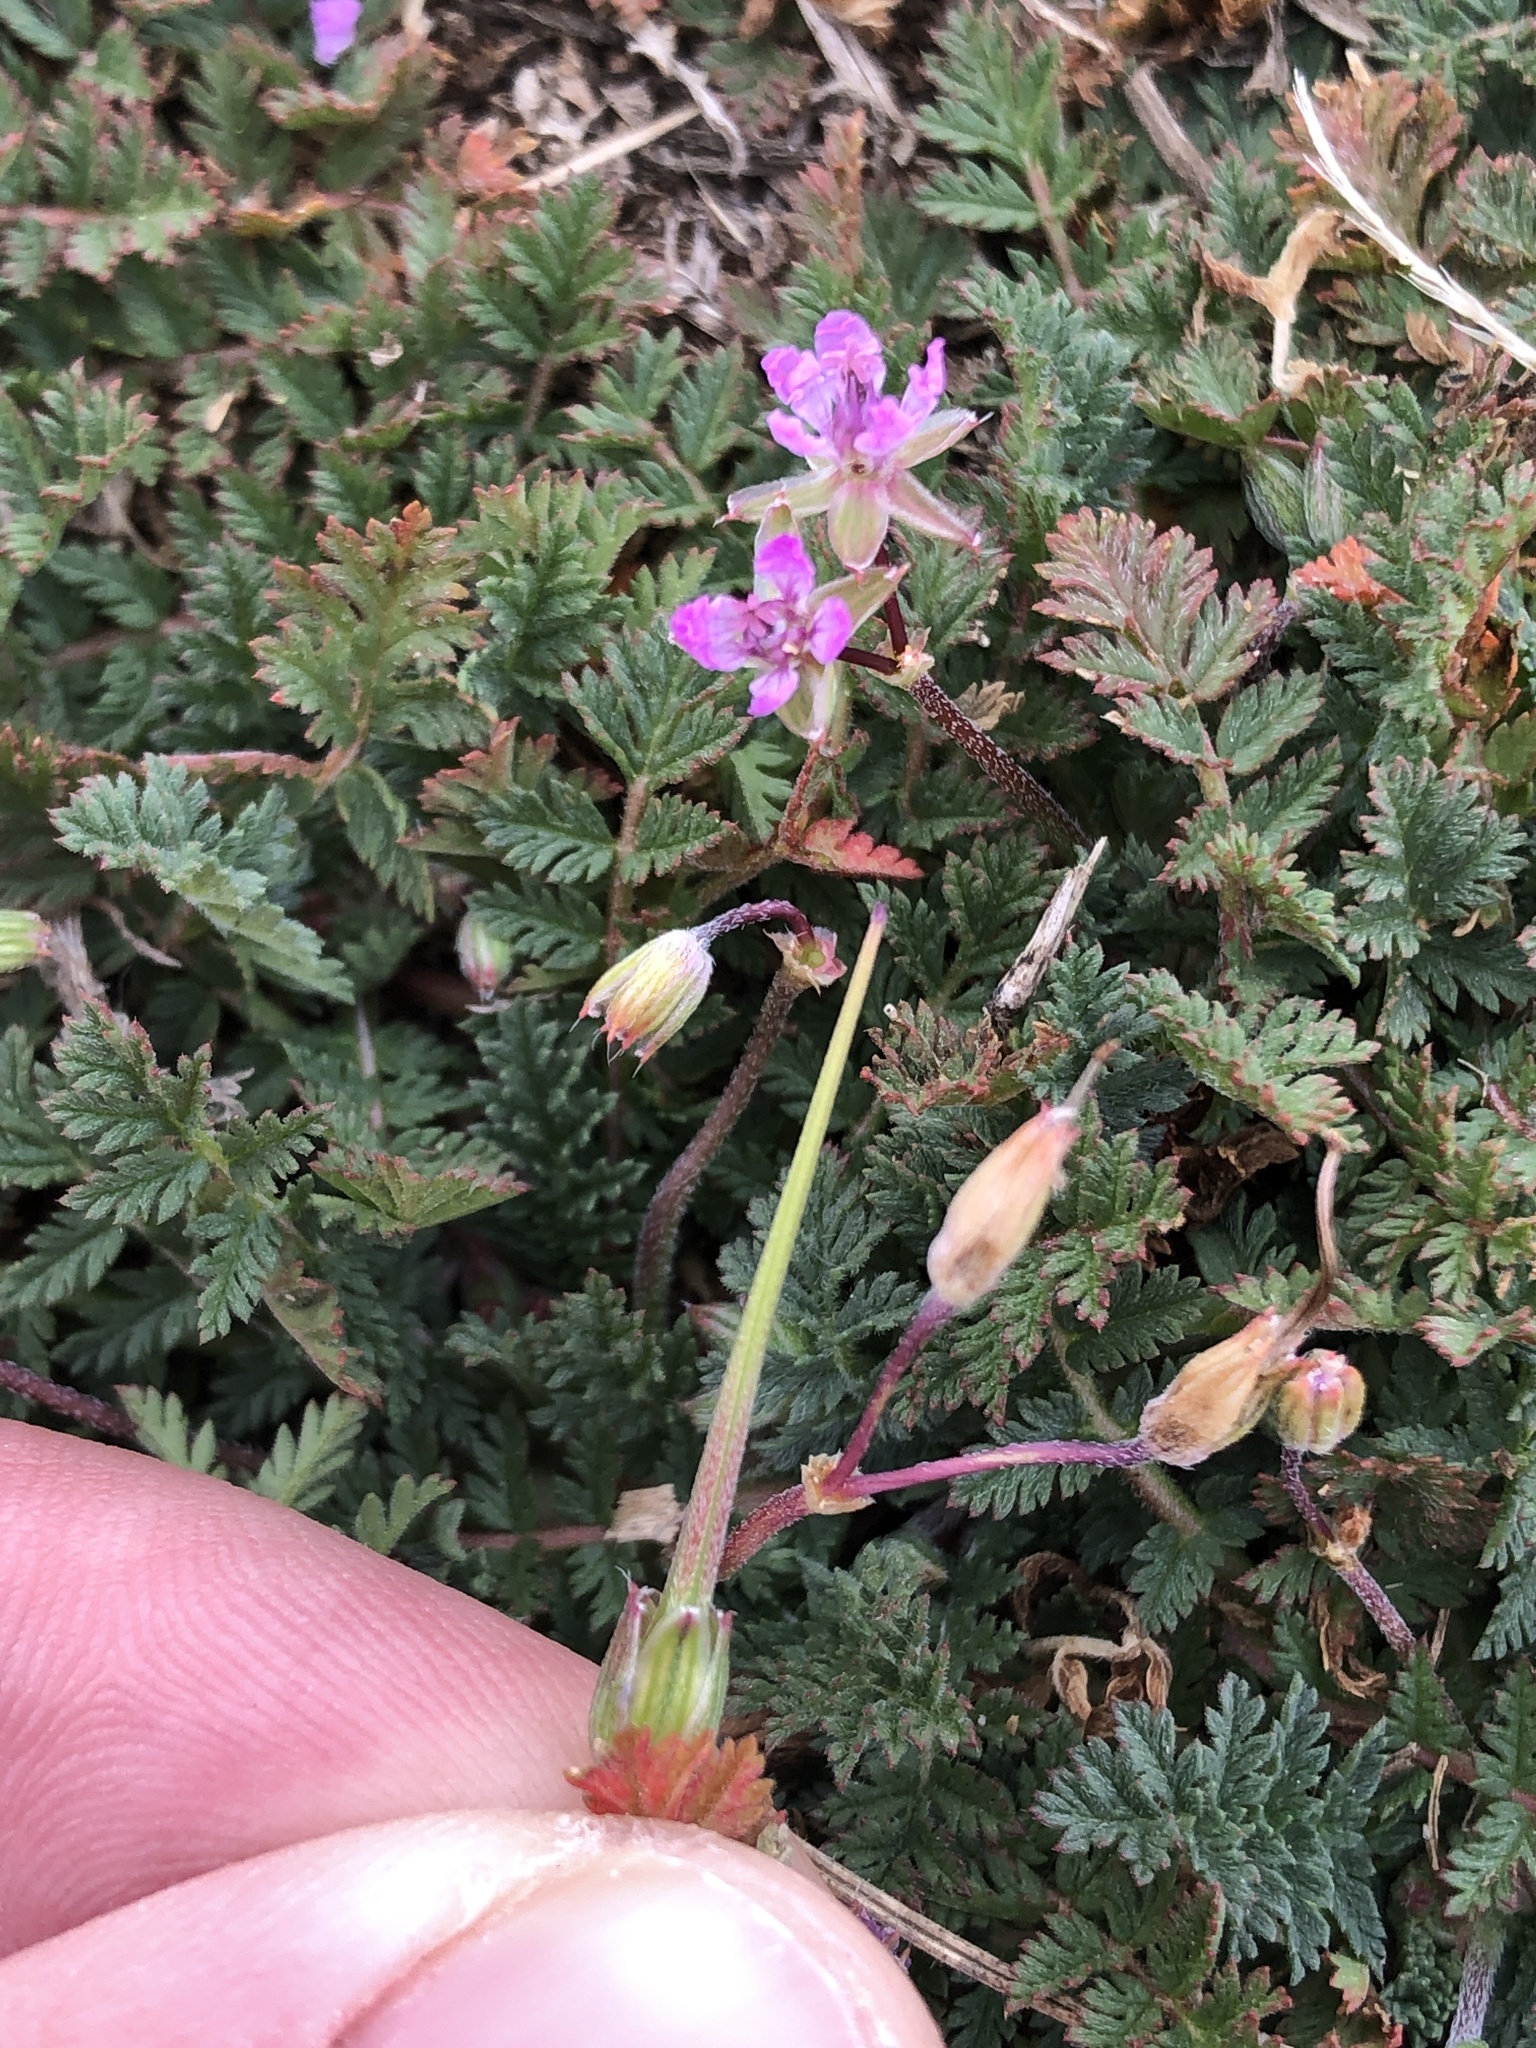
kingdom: Plantae
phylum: Tracheophyta
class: Magnoliopsida
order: Geraniales
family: Geraniaceae
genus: Erodium
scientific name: Erodium cicutarium
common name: Common stork's-bill
